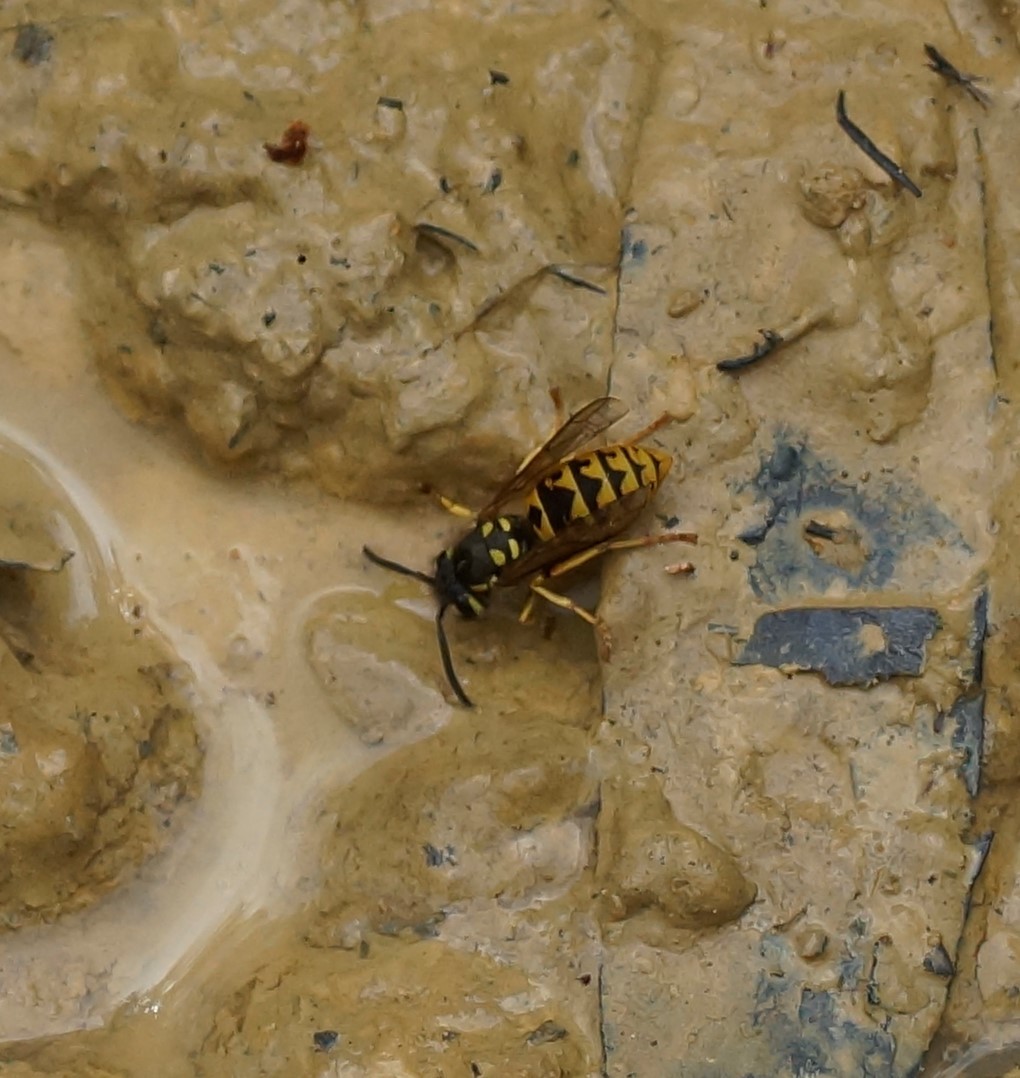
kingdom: Animalia
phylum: Arthropoda
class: Insecta
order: Hymenoptera
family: Vespidae
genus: Vespula
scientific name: Vespula germanica
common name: German wasp
